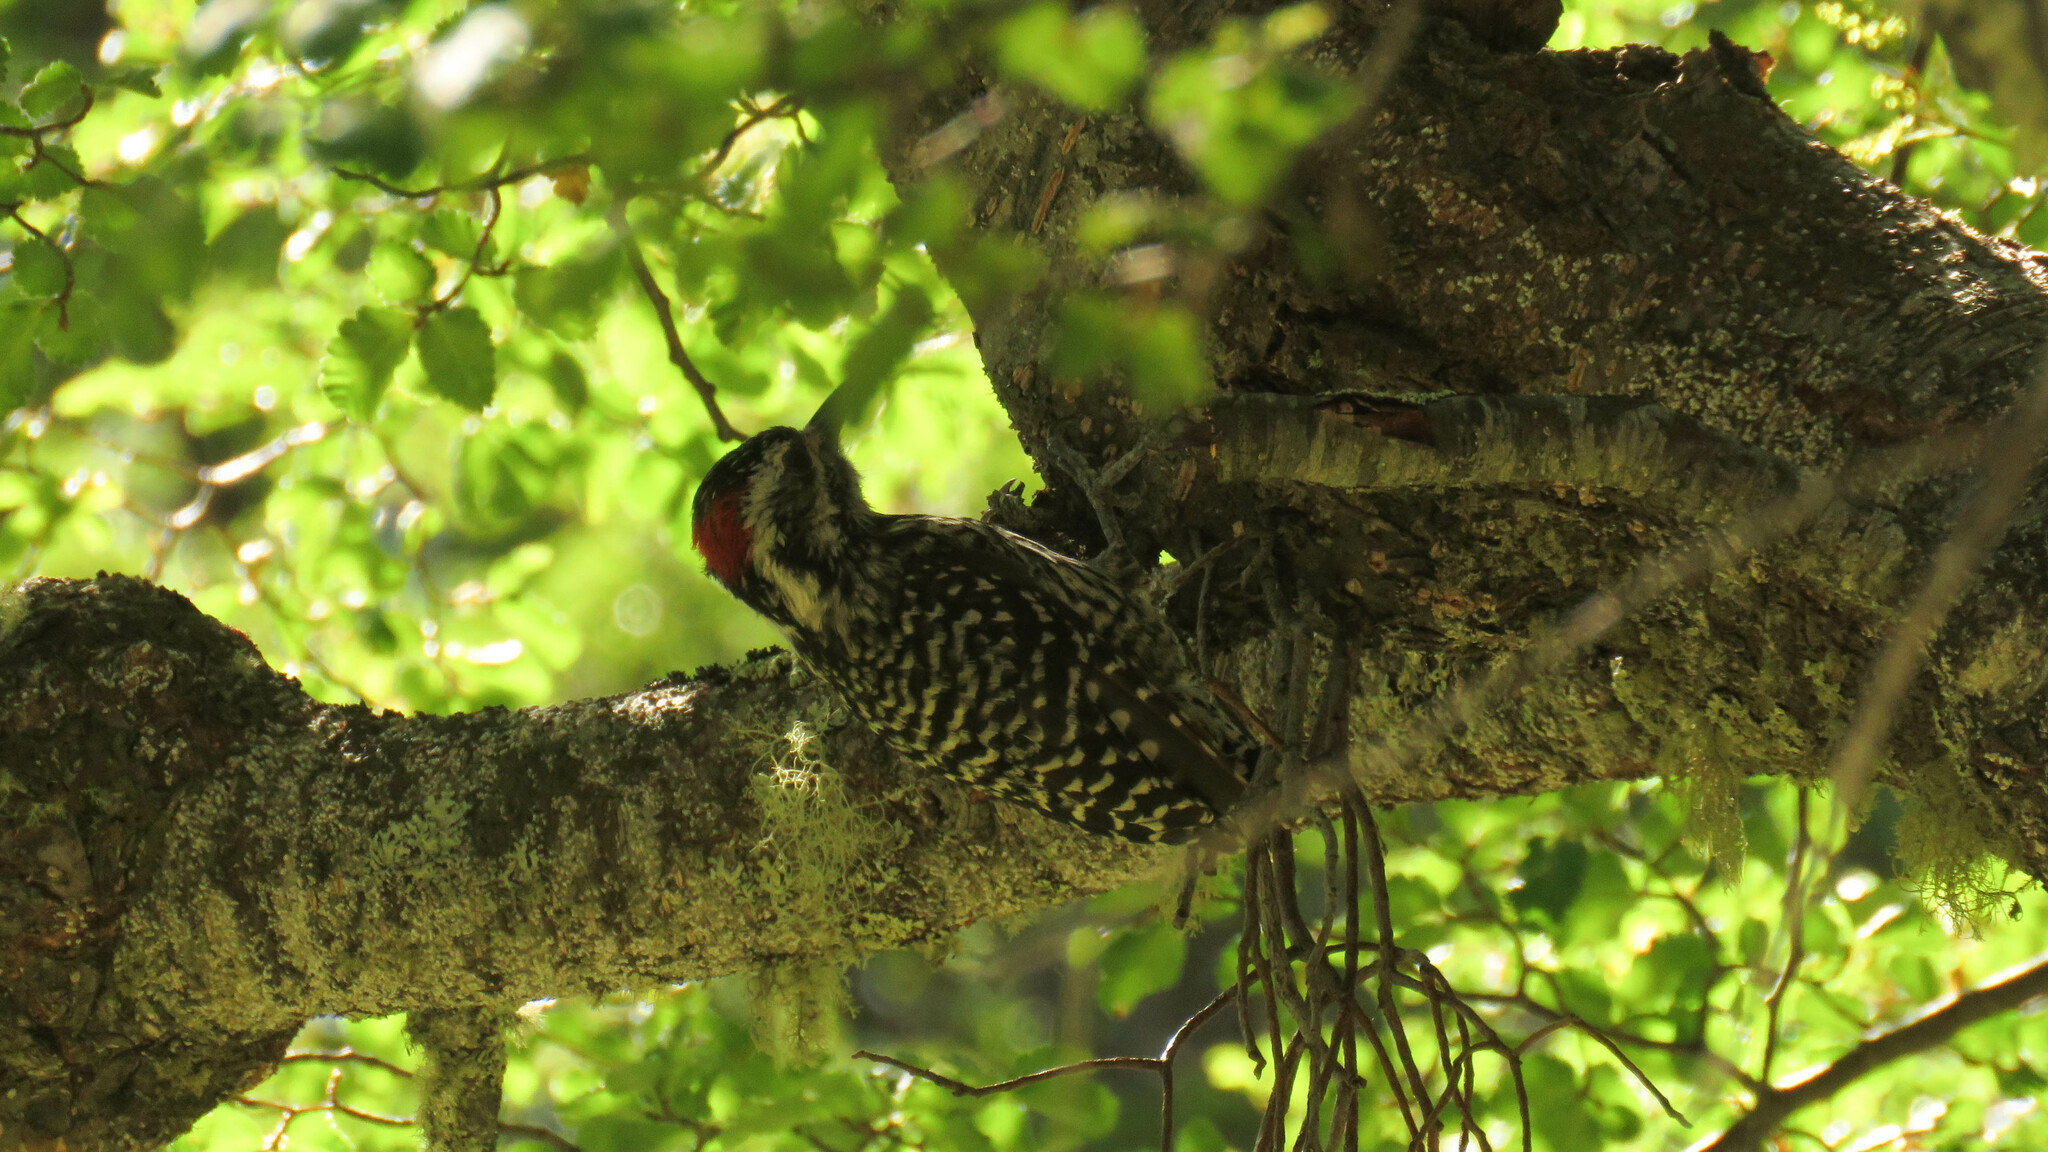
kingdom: Animalia
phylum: Chordata
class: Aves
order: Piciformes
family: Picidae
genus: Veniliornis
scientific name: Veniliornis lignarius
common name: Striped woodpecker
